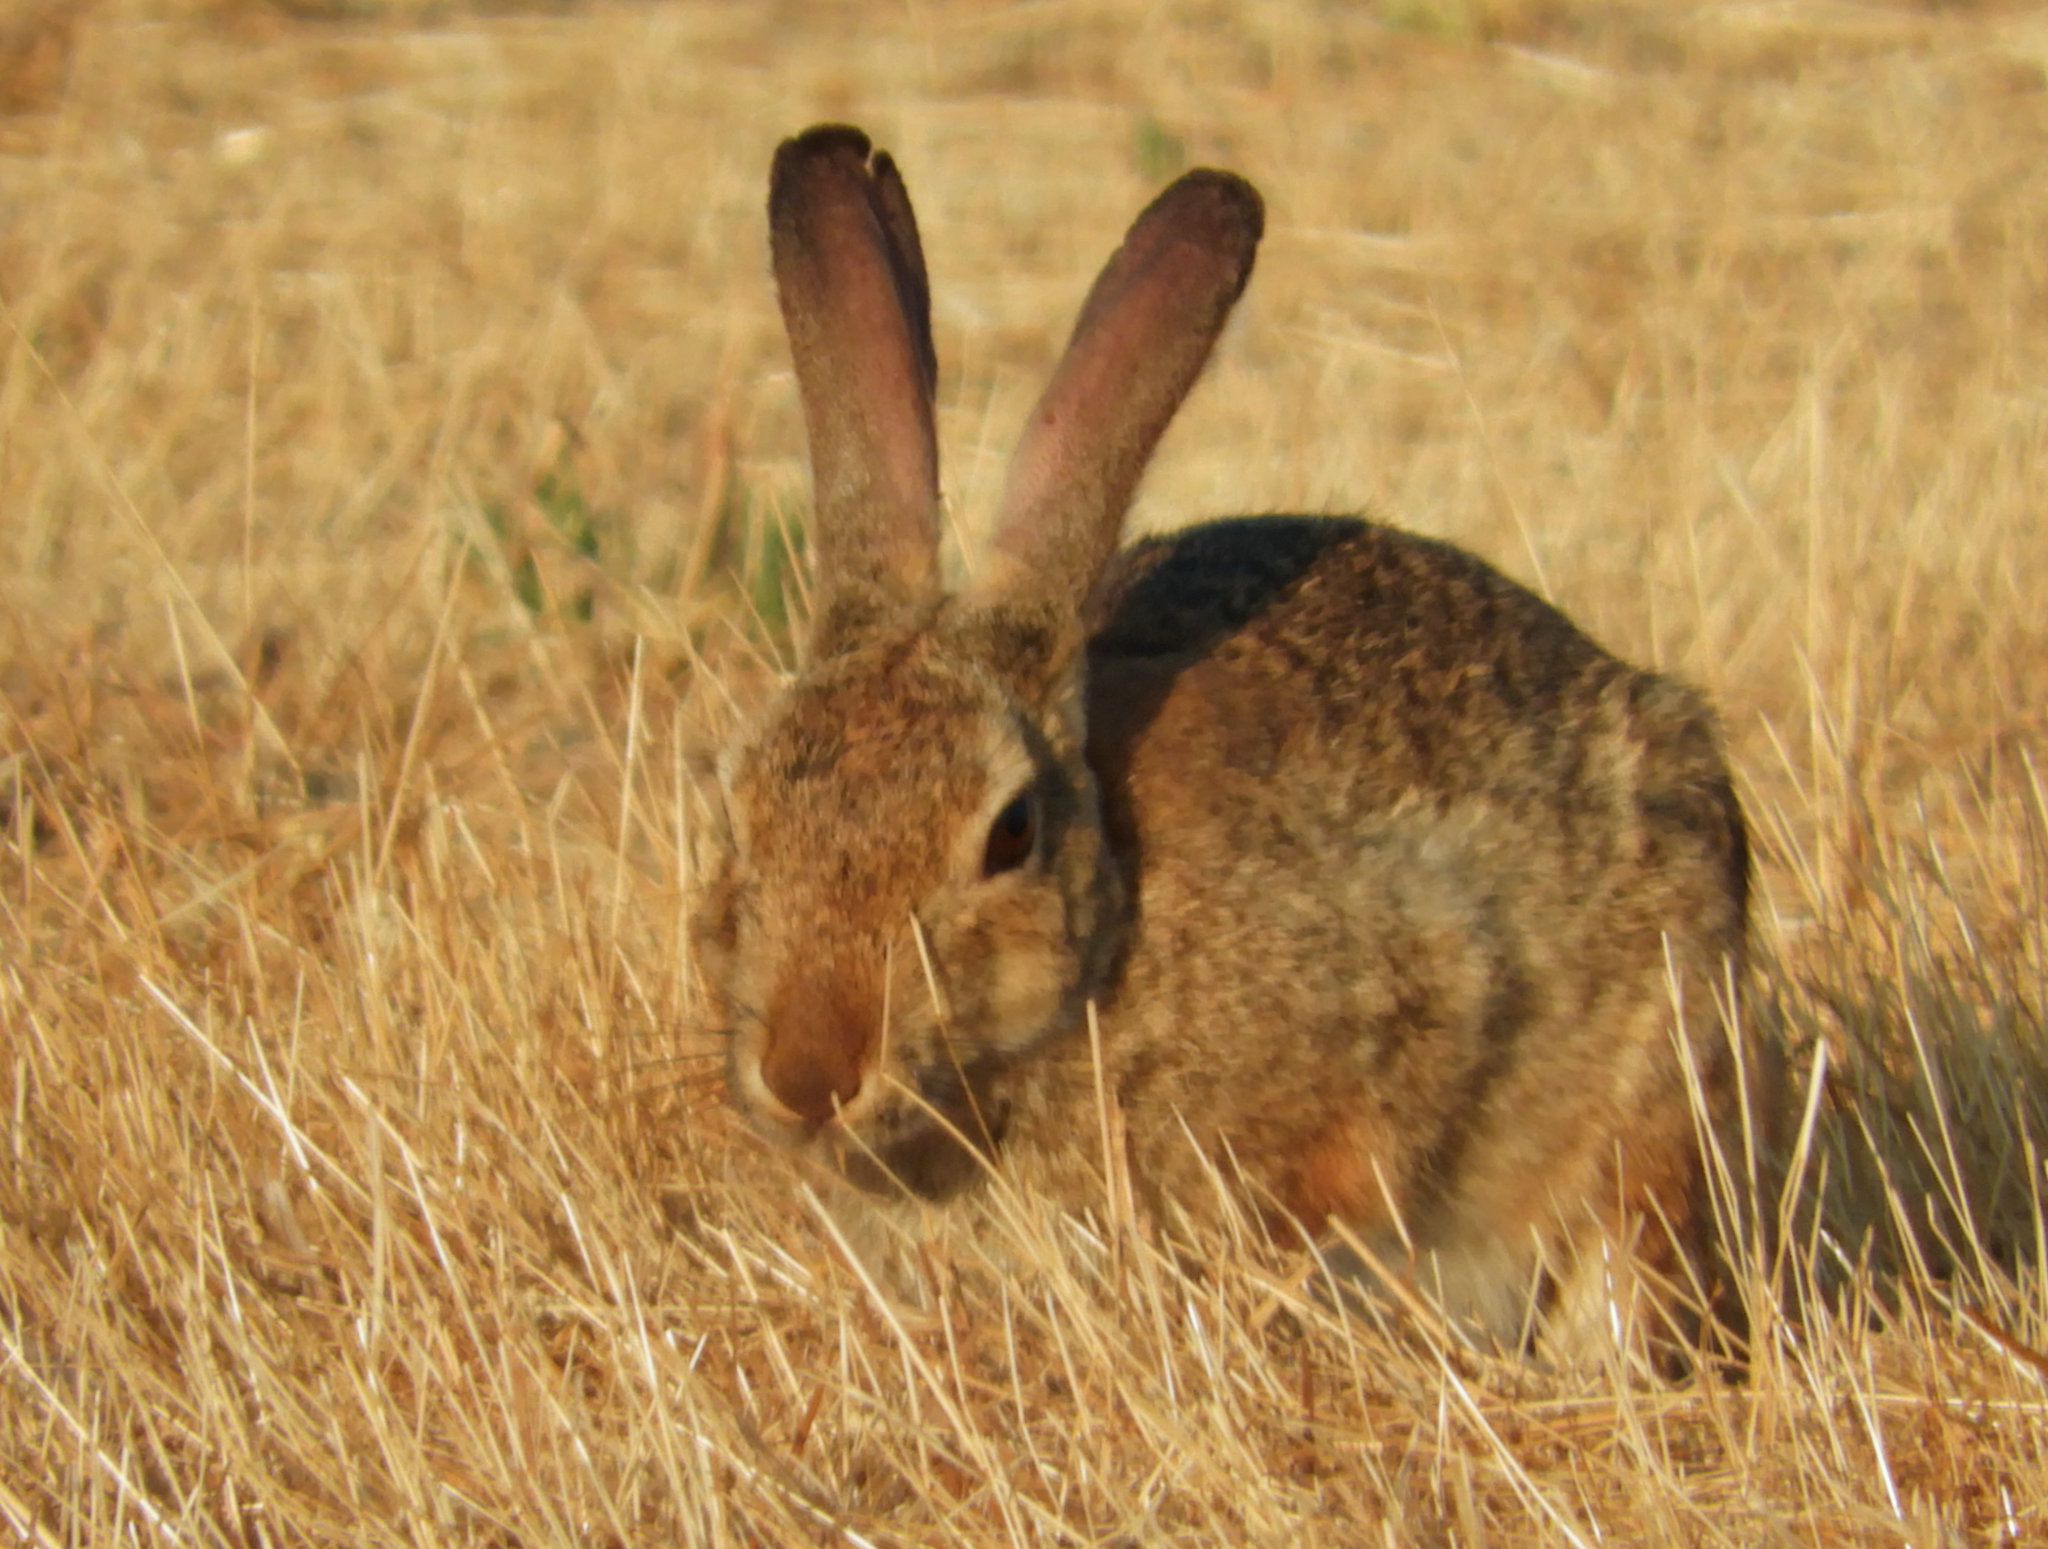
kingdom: Animalia
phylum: Chordata
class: Mammalia
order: Lagomorpha
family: Leporidae
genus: Sylvilagus
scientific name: Sylvilagus audubonii
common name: Desert cottontail
